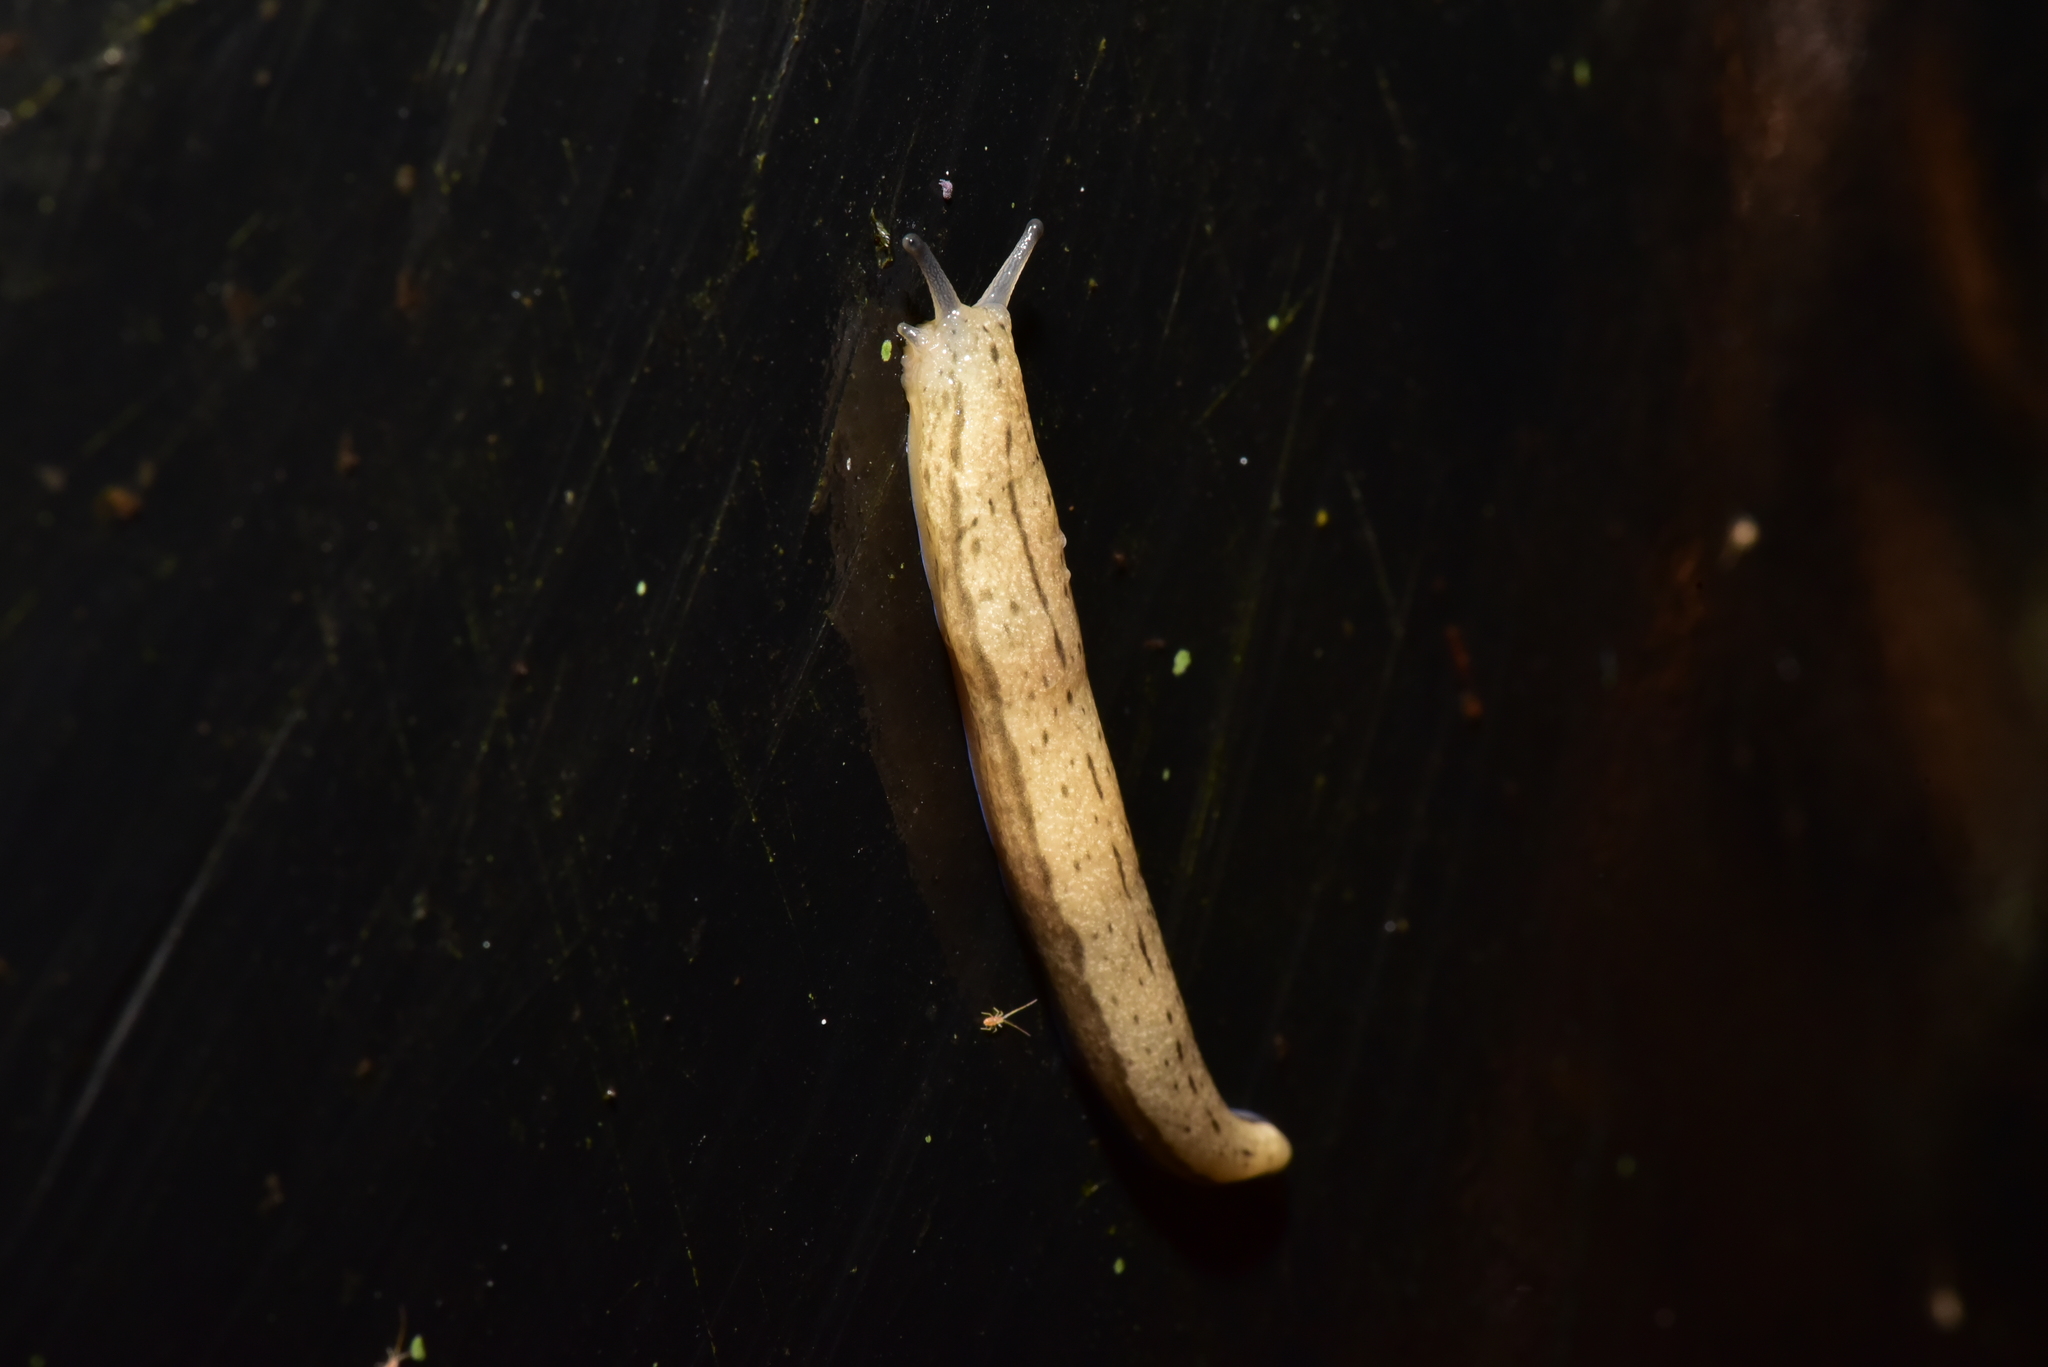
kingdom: Animalia
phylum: Mollusca
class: Gastropoda
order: Stylommatophora
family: Philomycidae
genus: Meghimatium
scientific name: Meghimatium bilineatum
